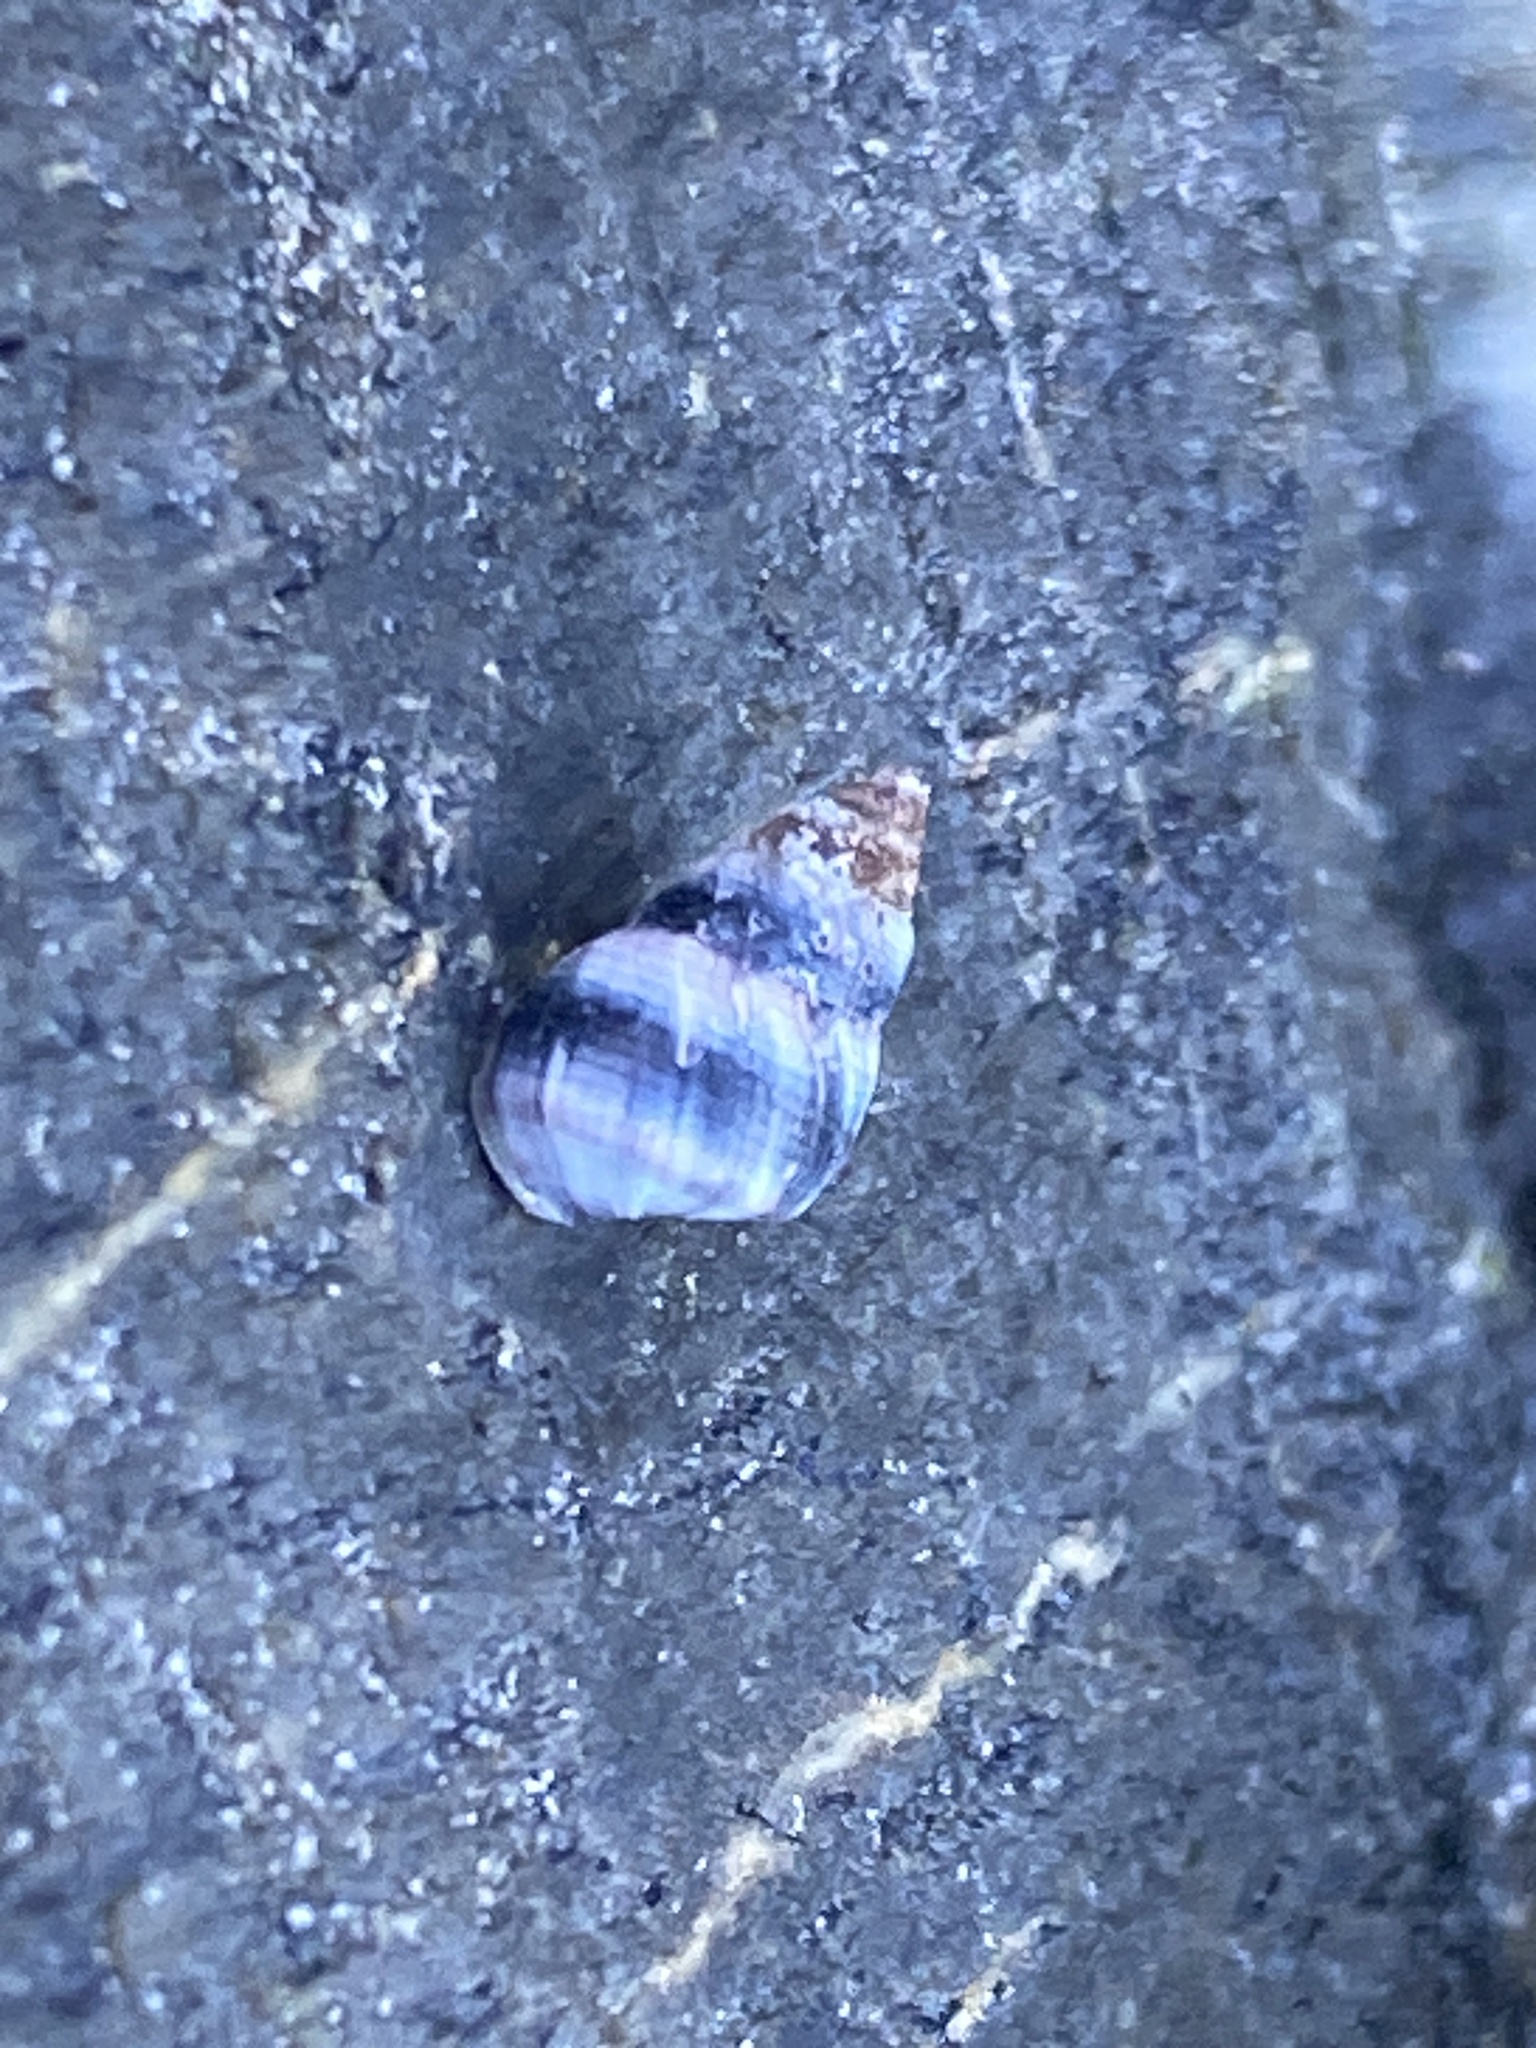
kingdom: Animalia
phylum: Mollusca
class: Gastropoda
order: Littorinimorpha
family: Littorinidae
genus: Austrolittorina
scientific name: Austrolittorina antipodum
